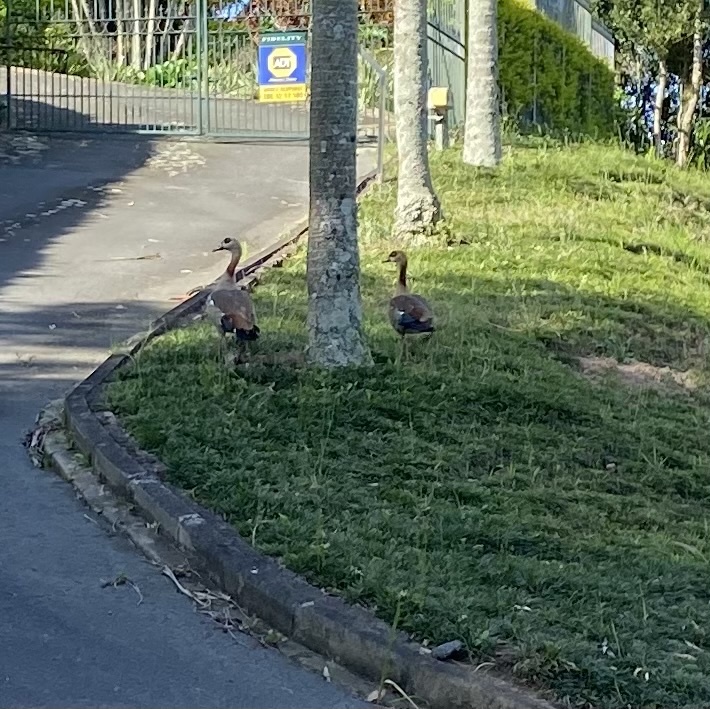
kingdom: Animalia
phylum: Chordata
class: Aves
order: Anseriformes
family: Anatidae
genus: Alopochen
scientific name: Alopochen aegyptiaca
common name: Egyptian goose
